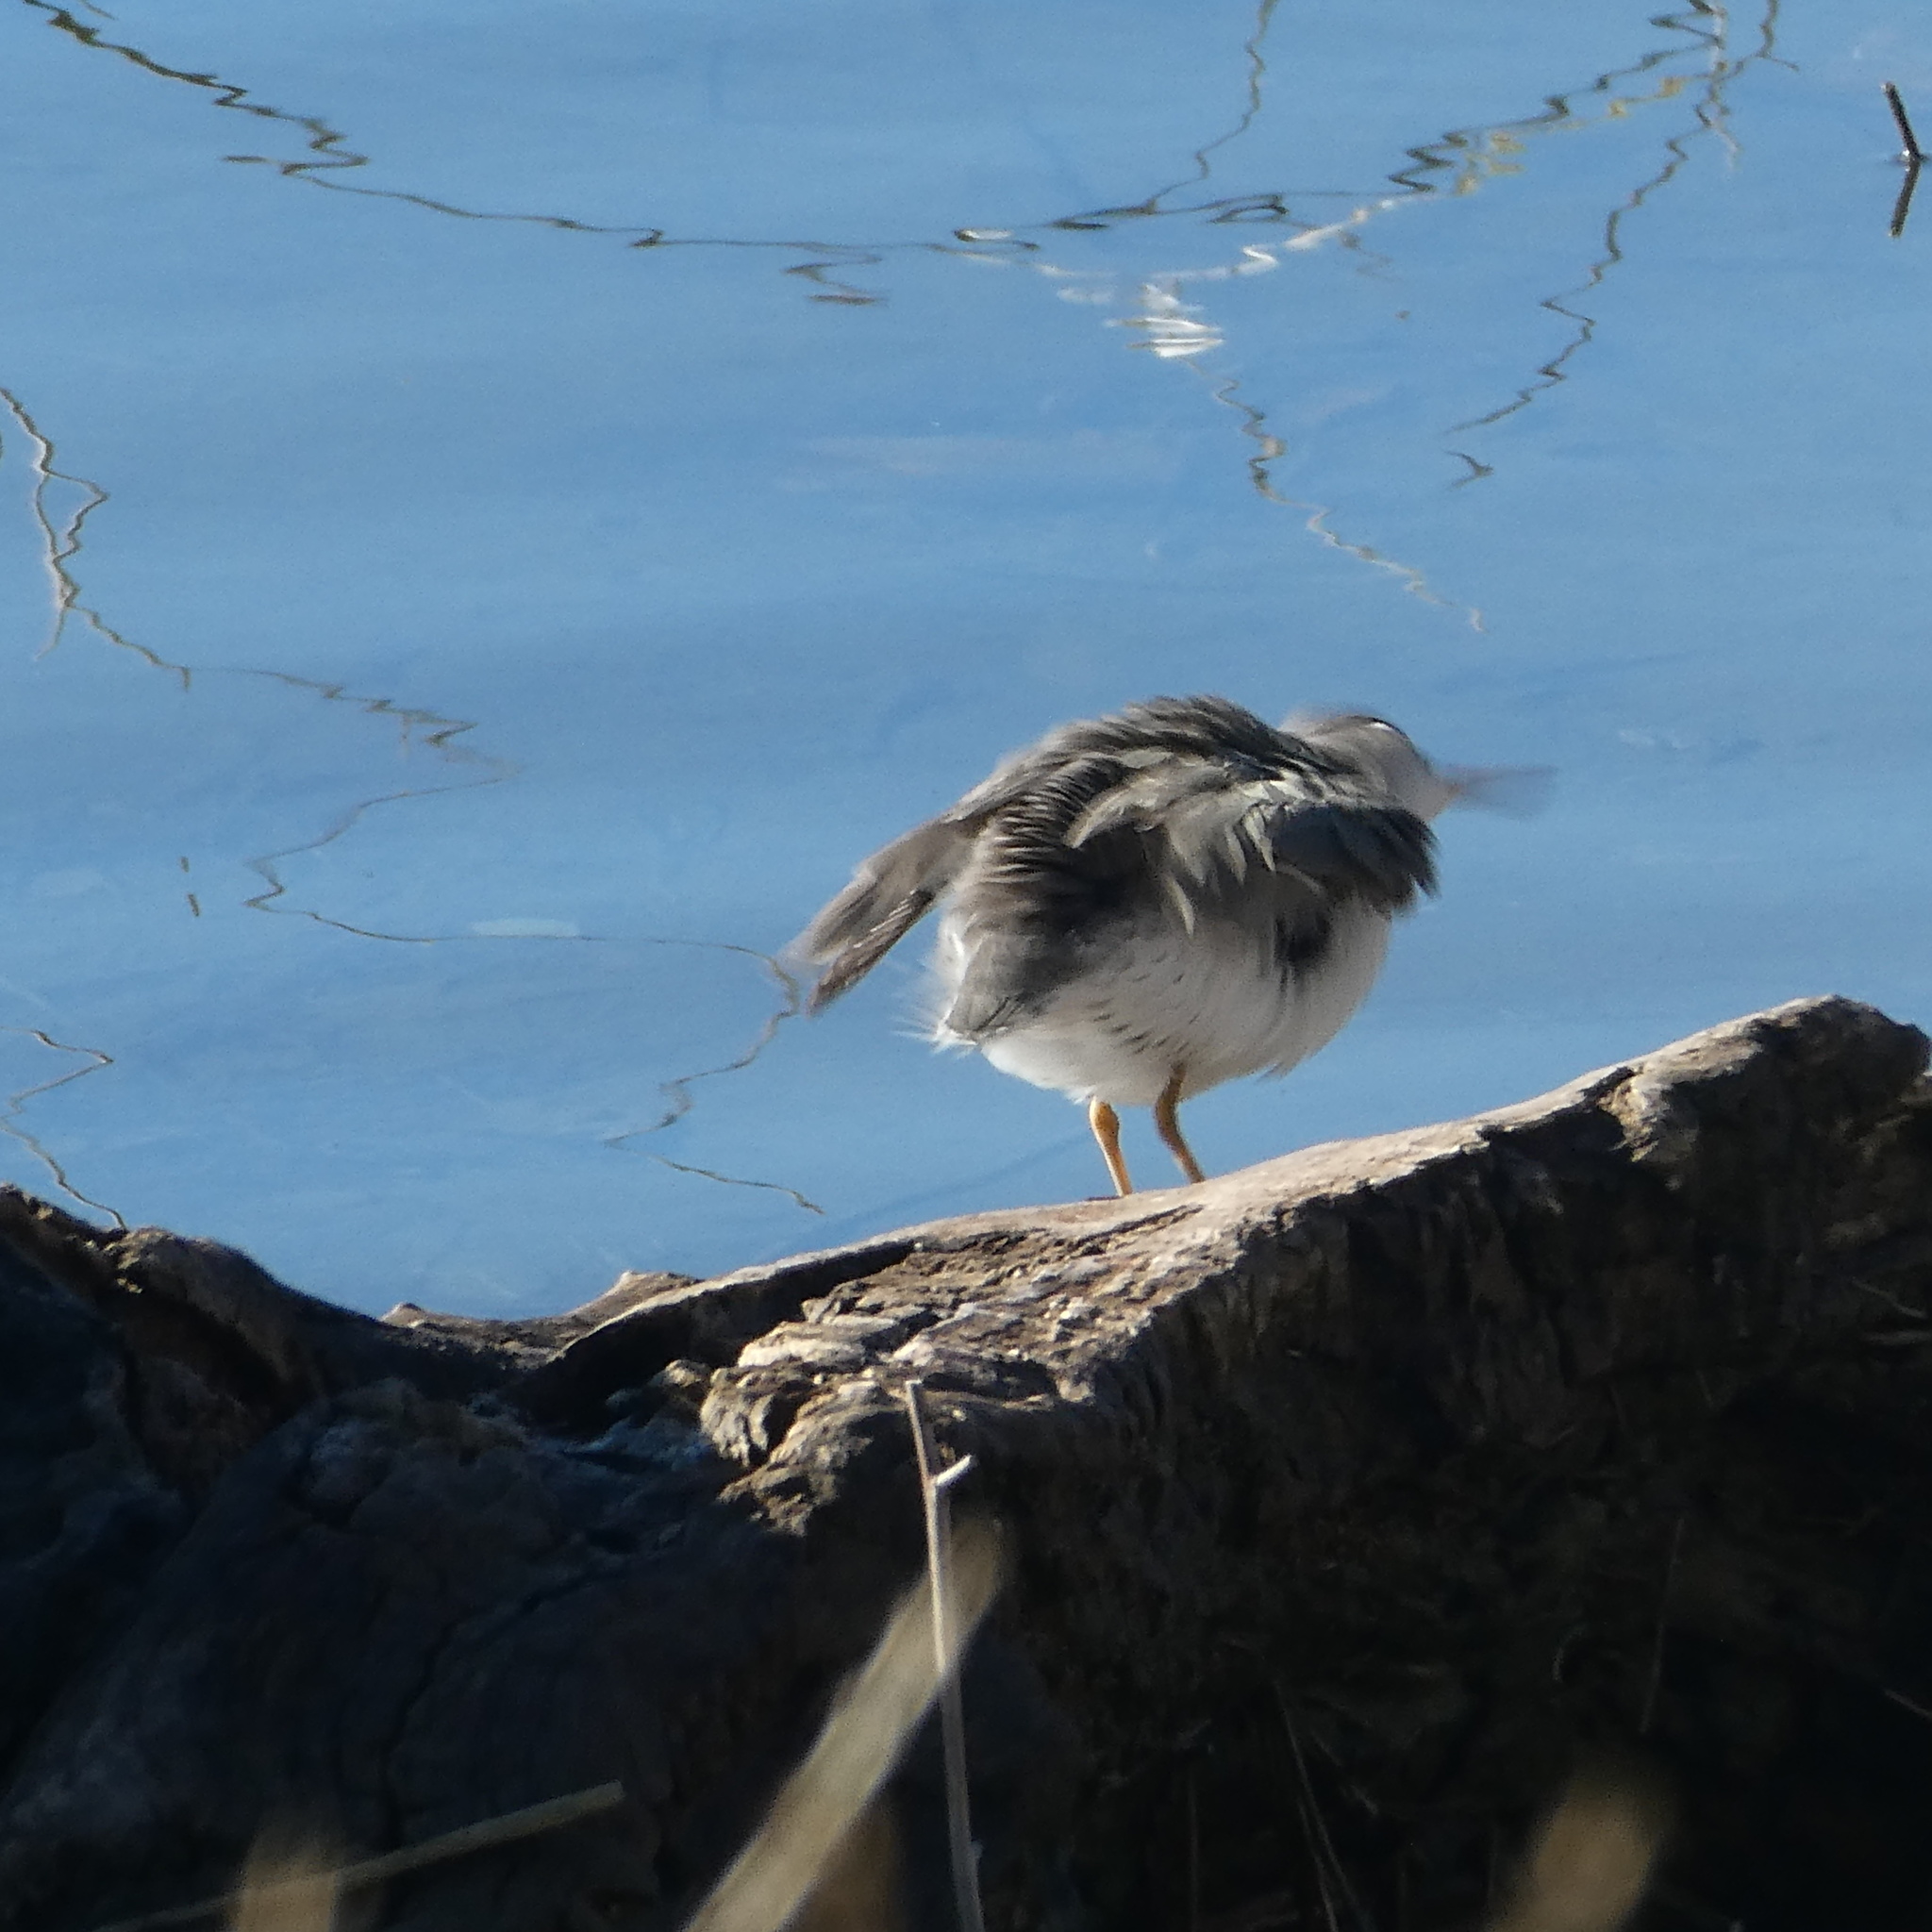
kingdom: Animalia
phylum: Chordata
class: Aves
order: Charadriiformes
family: Scolopacidae
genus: Actitis
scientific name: Actitis macularius
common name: Spotted sandpiper
